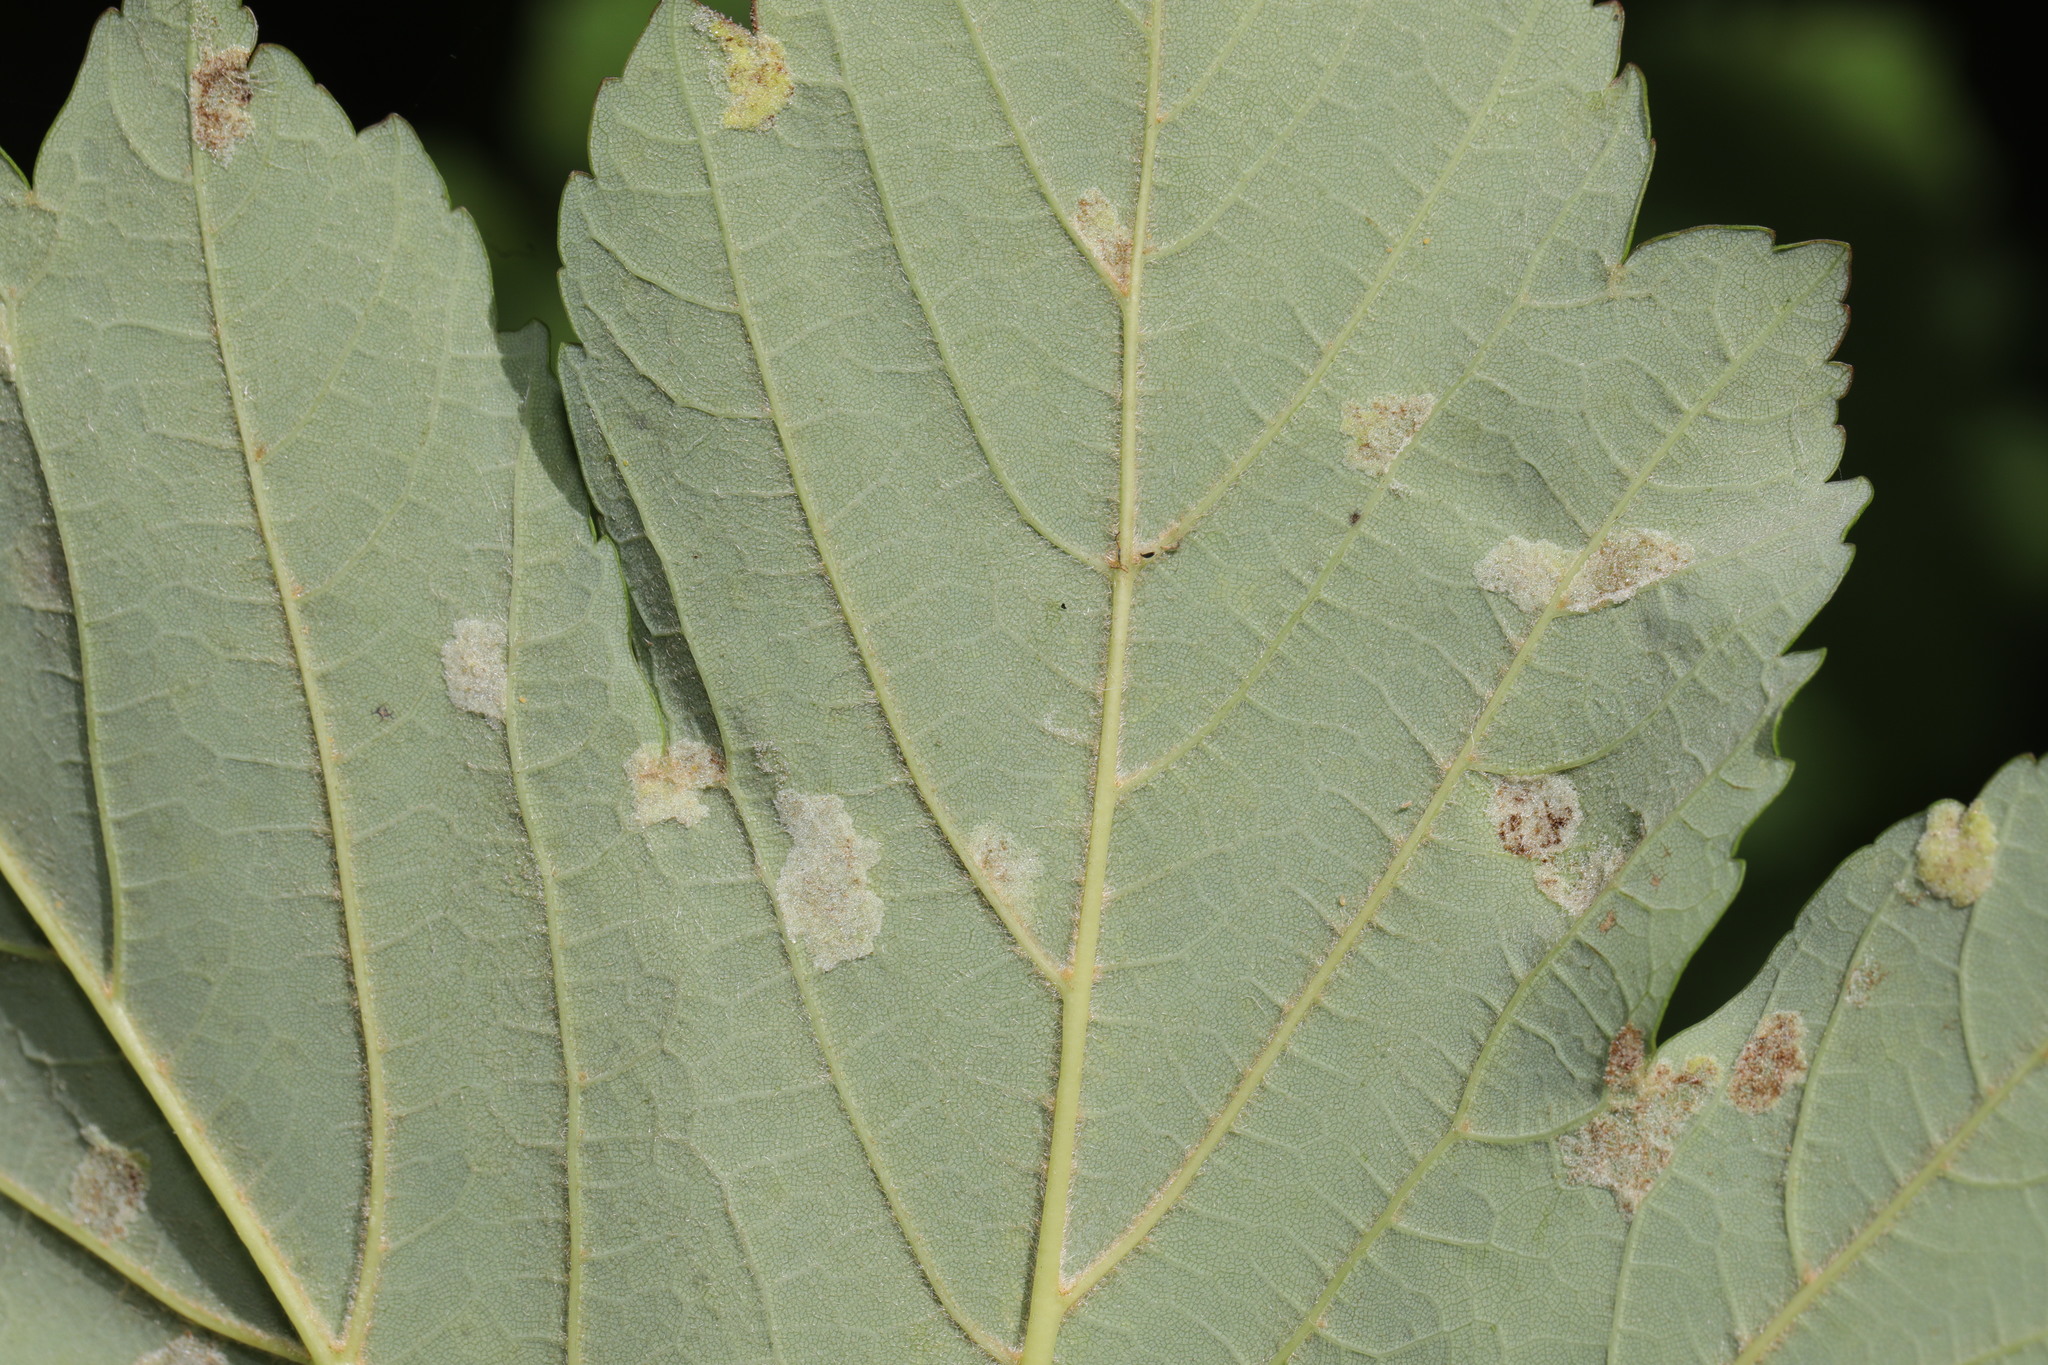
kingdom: Animalia
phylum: Arthropoda
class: Arachnida
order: Trombidiformes
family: Eriophyidae
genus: Aceria
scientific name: Aceria pseudoplatani
